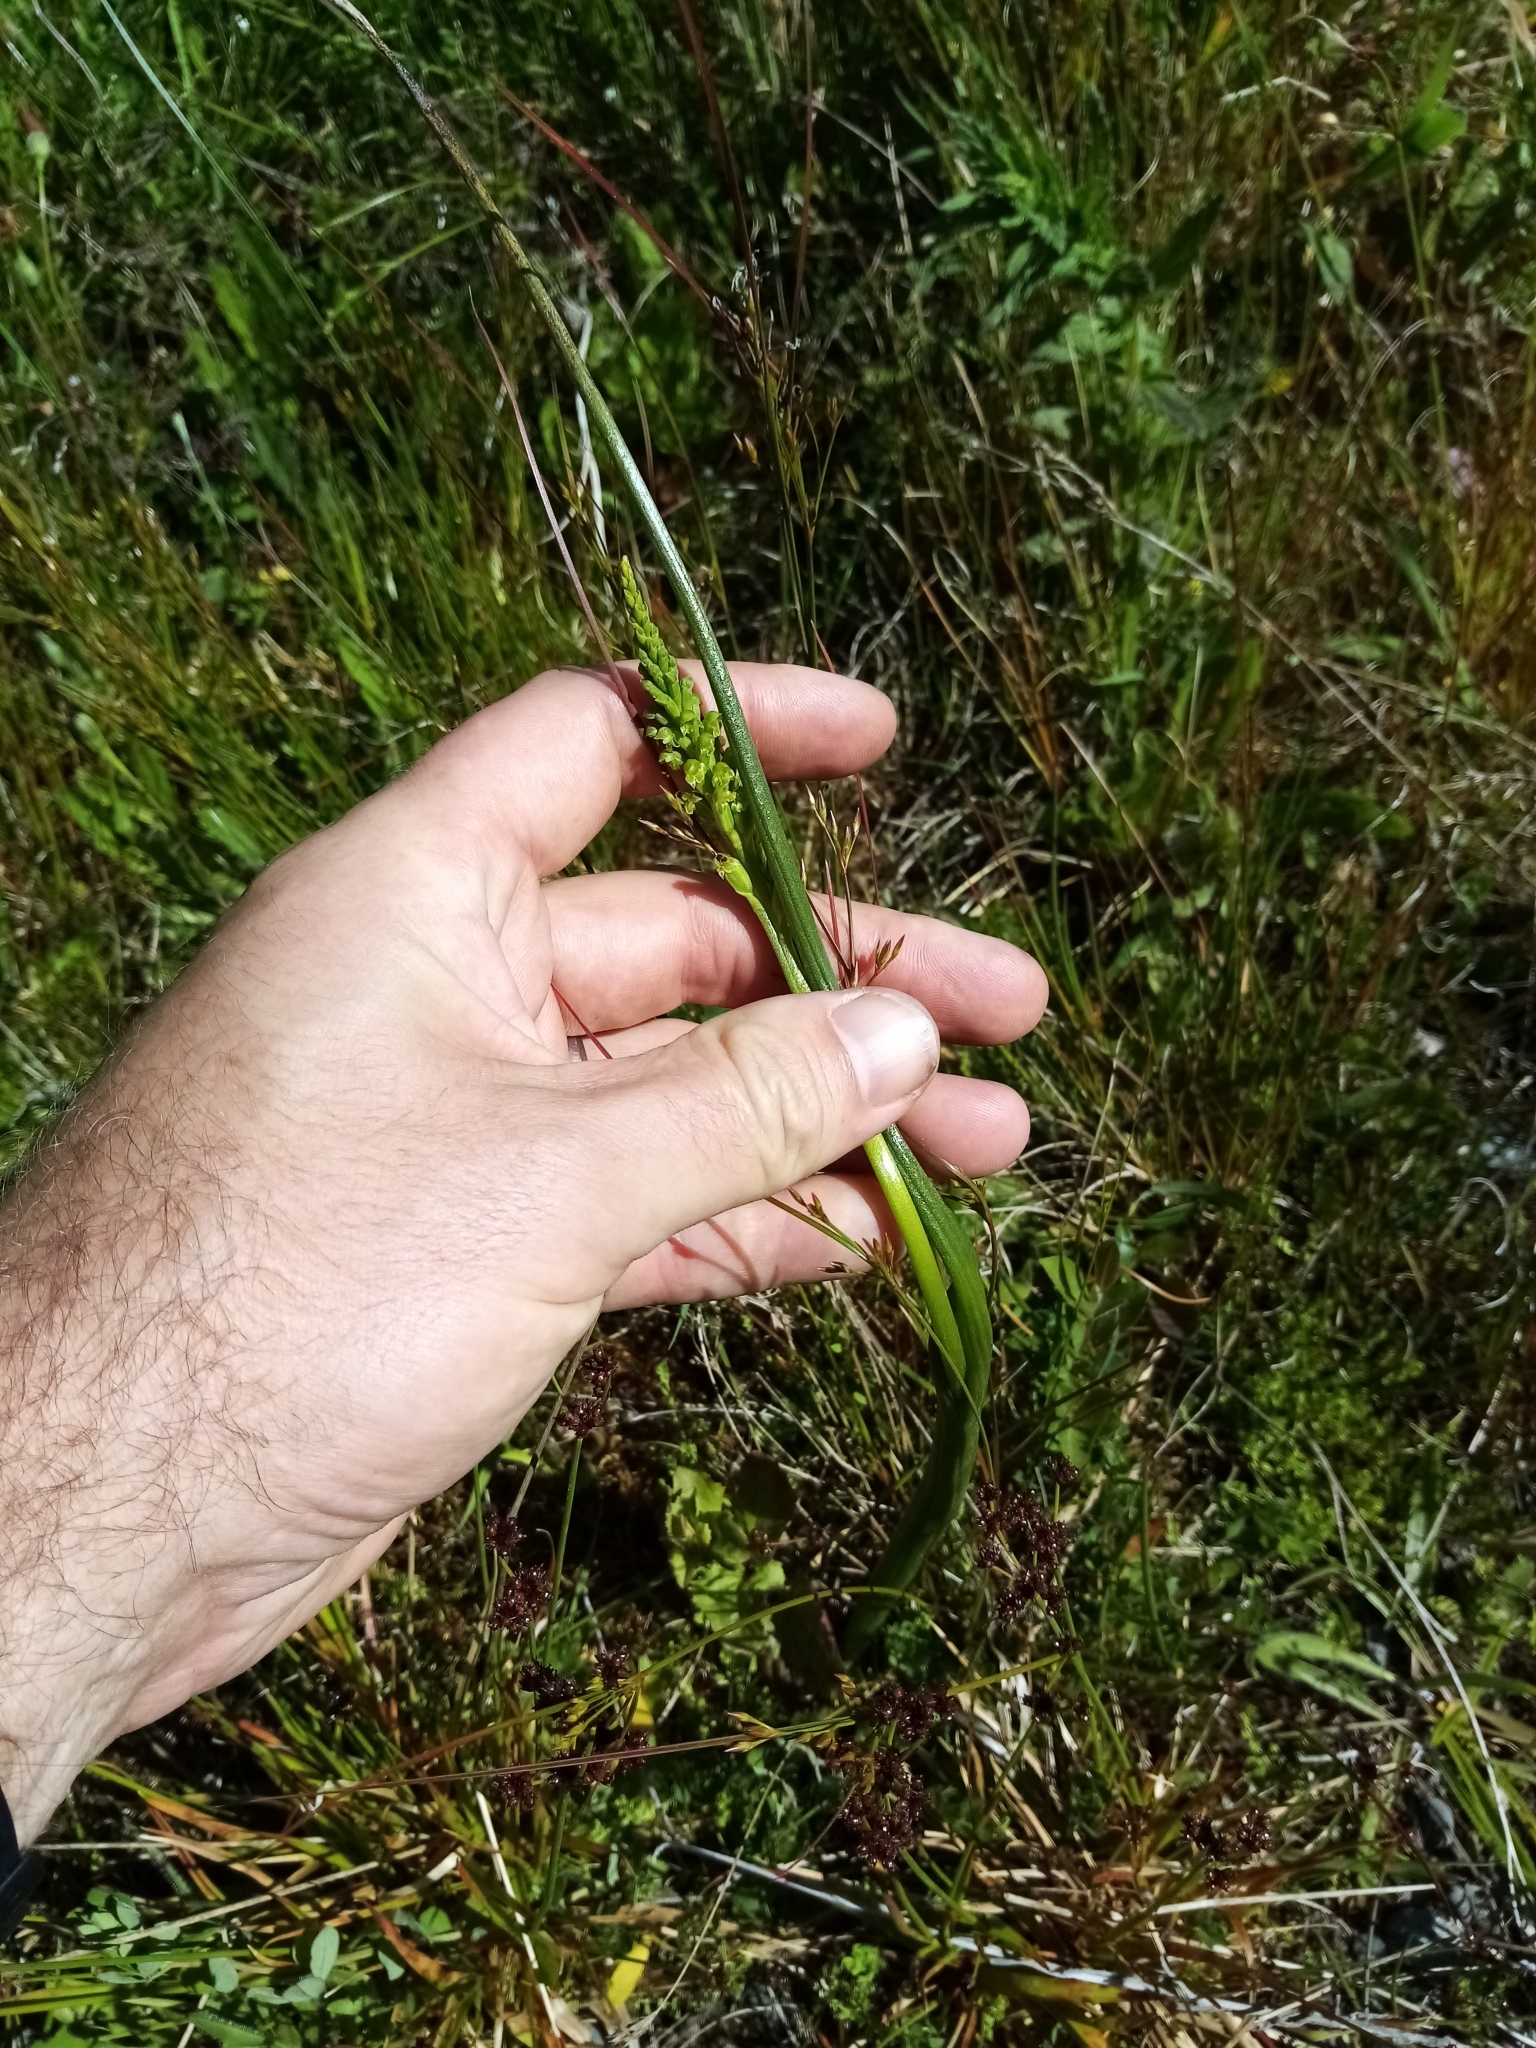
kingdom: Plantae
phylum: Tracheophyta
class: Liliopsida
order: Asparagales
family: Orchidaceae
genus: Microtis
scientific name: Microtis unifolia
